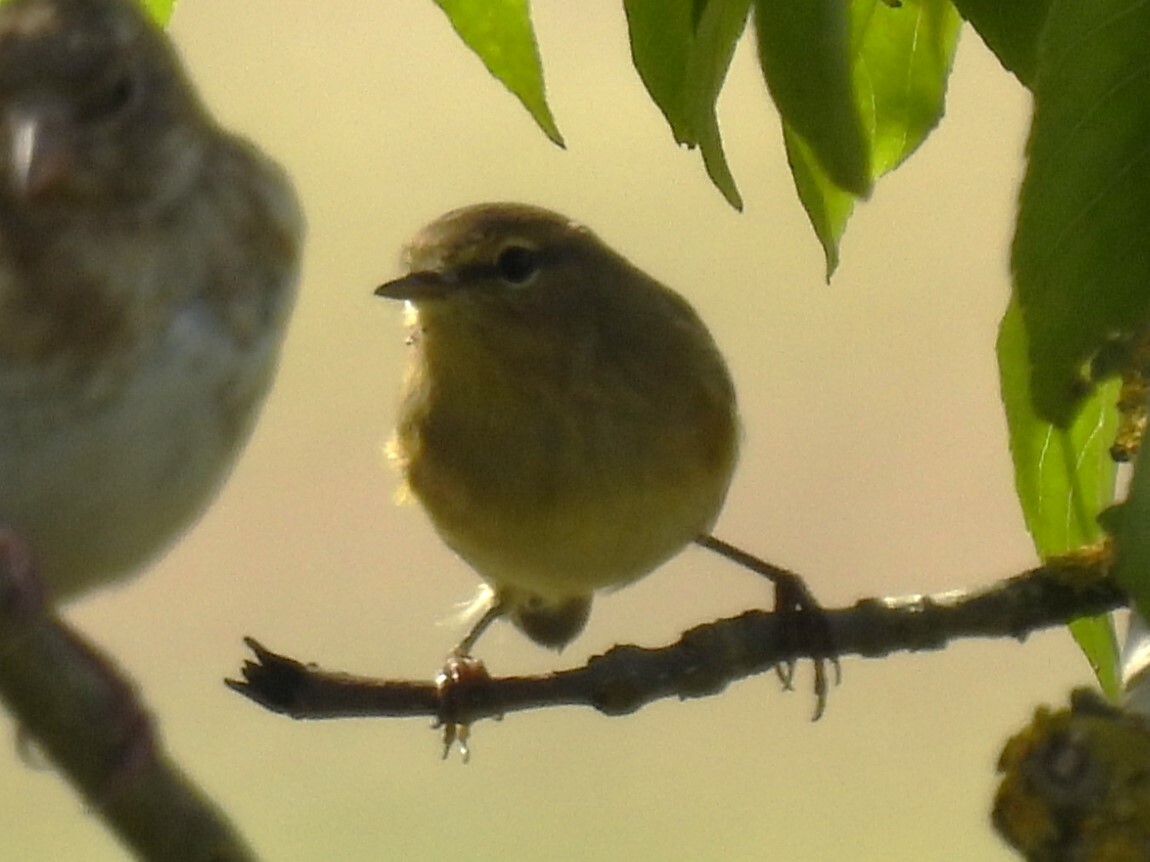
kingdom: Animalia
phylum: Chordata
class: Aves
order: Passeriformes
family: Phylloscopidae
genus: Phylloscopus
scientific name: Phylloscopus collybita
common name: Common chiffchaff
